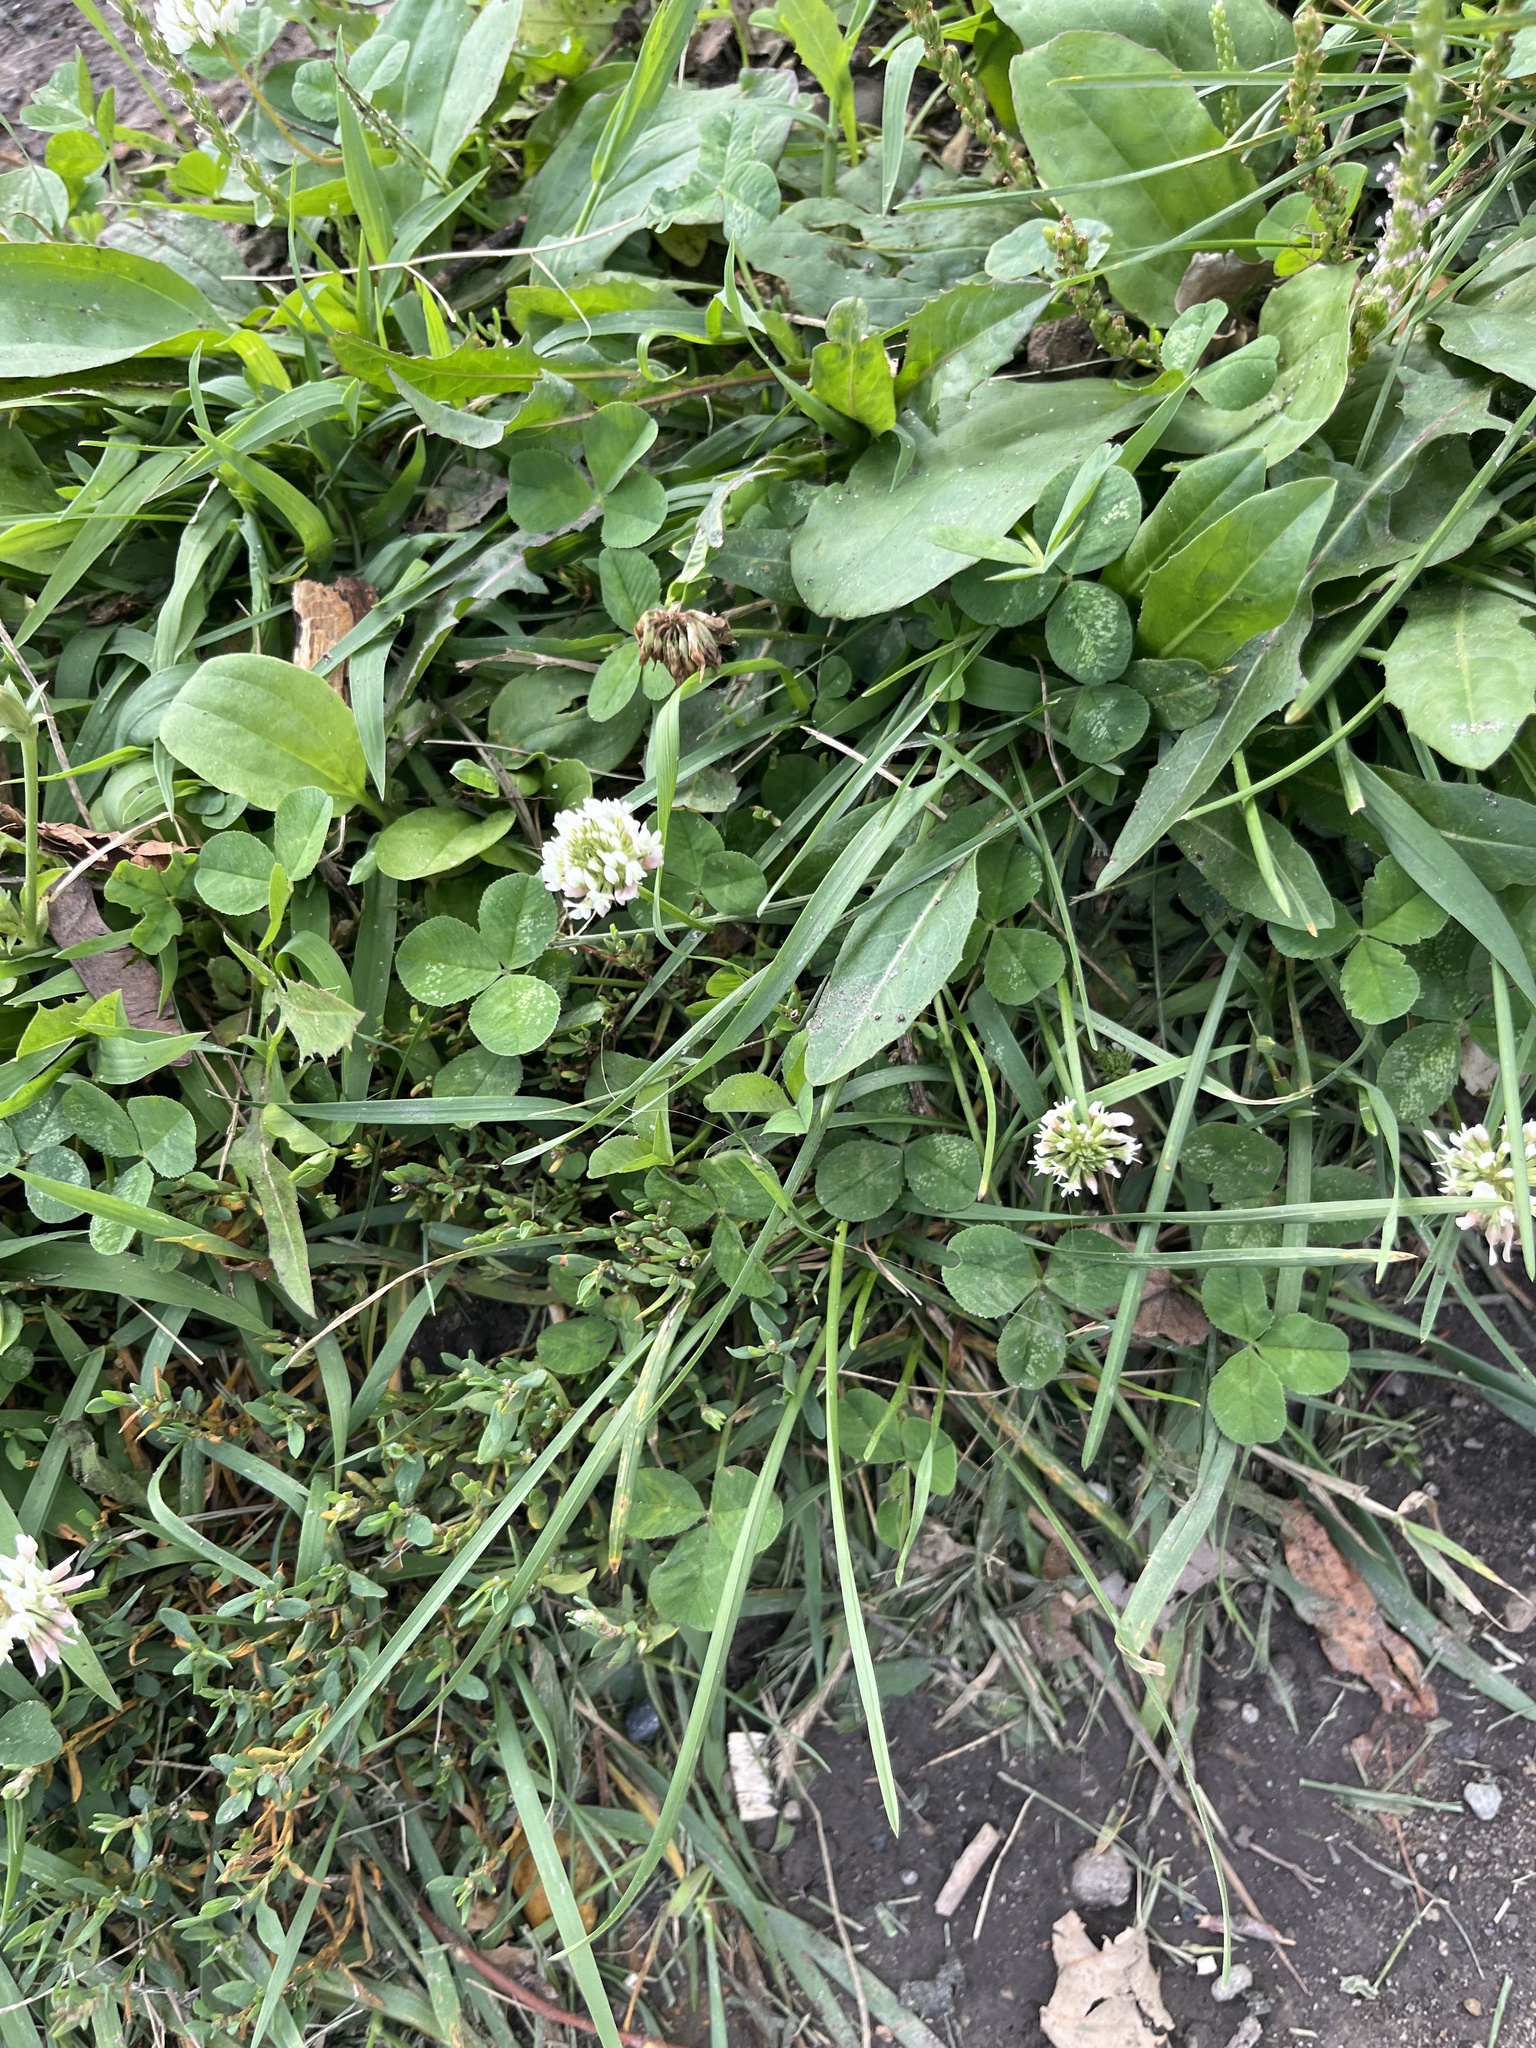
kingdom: Plantae
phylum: Tracheophyta
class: Magnoliopsida
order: Fabales
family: Fabaceae
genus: Trifolium
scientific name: Trifolium repens
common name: White clover
